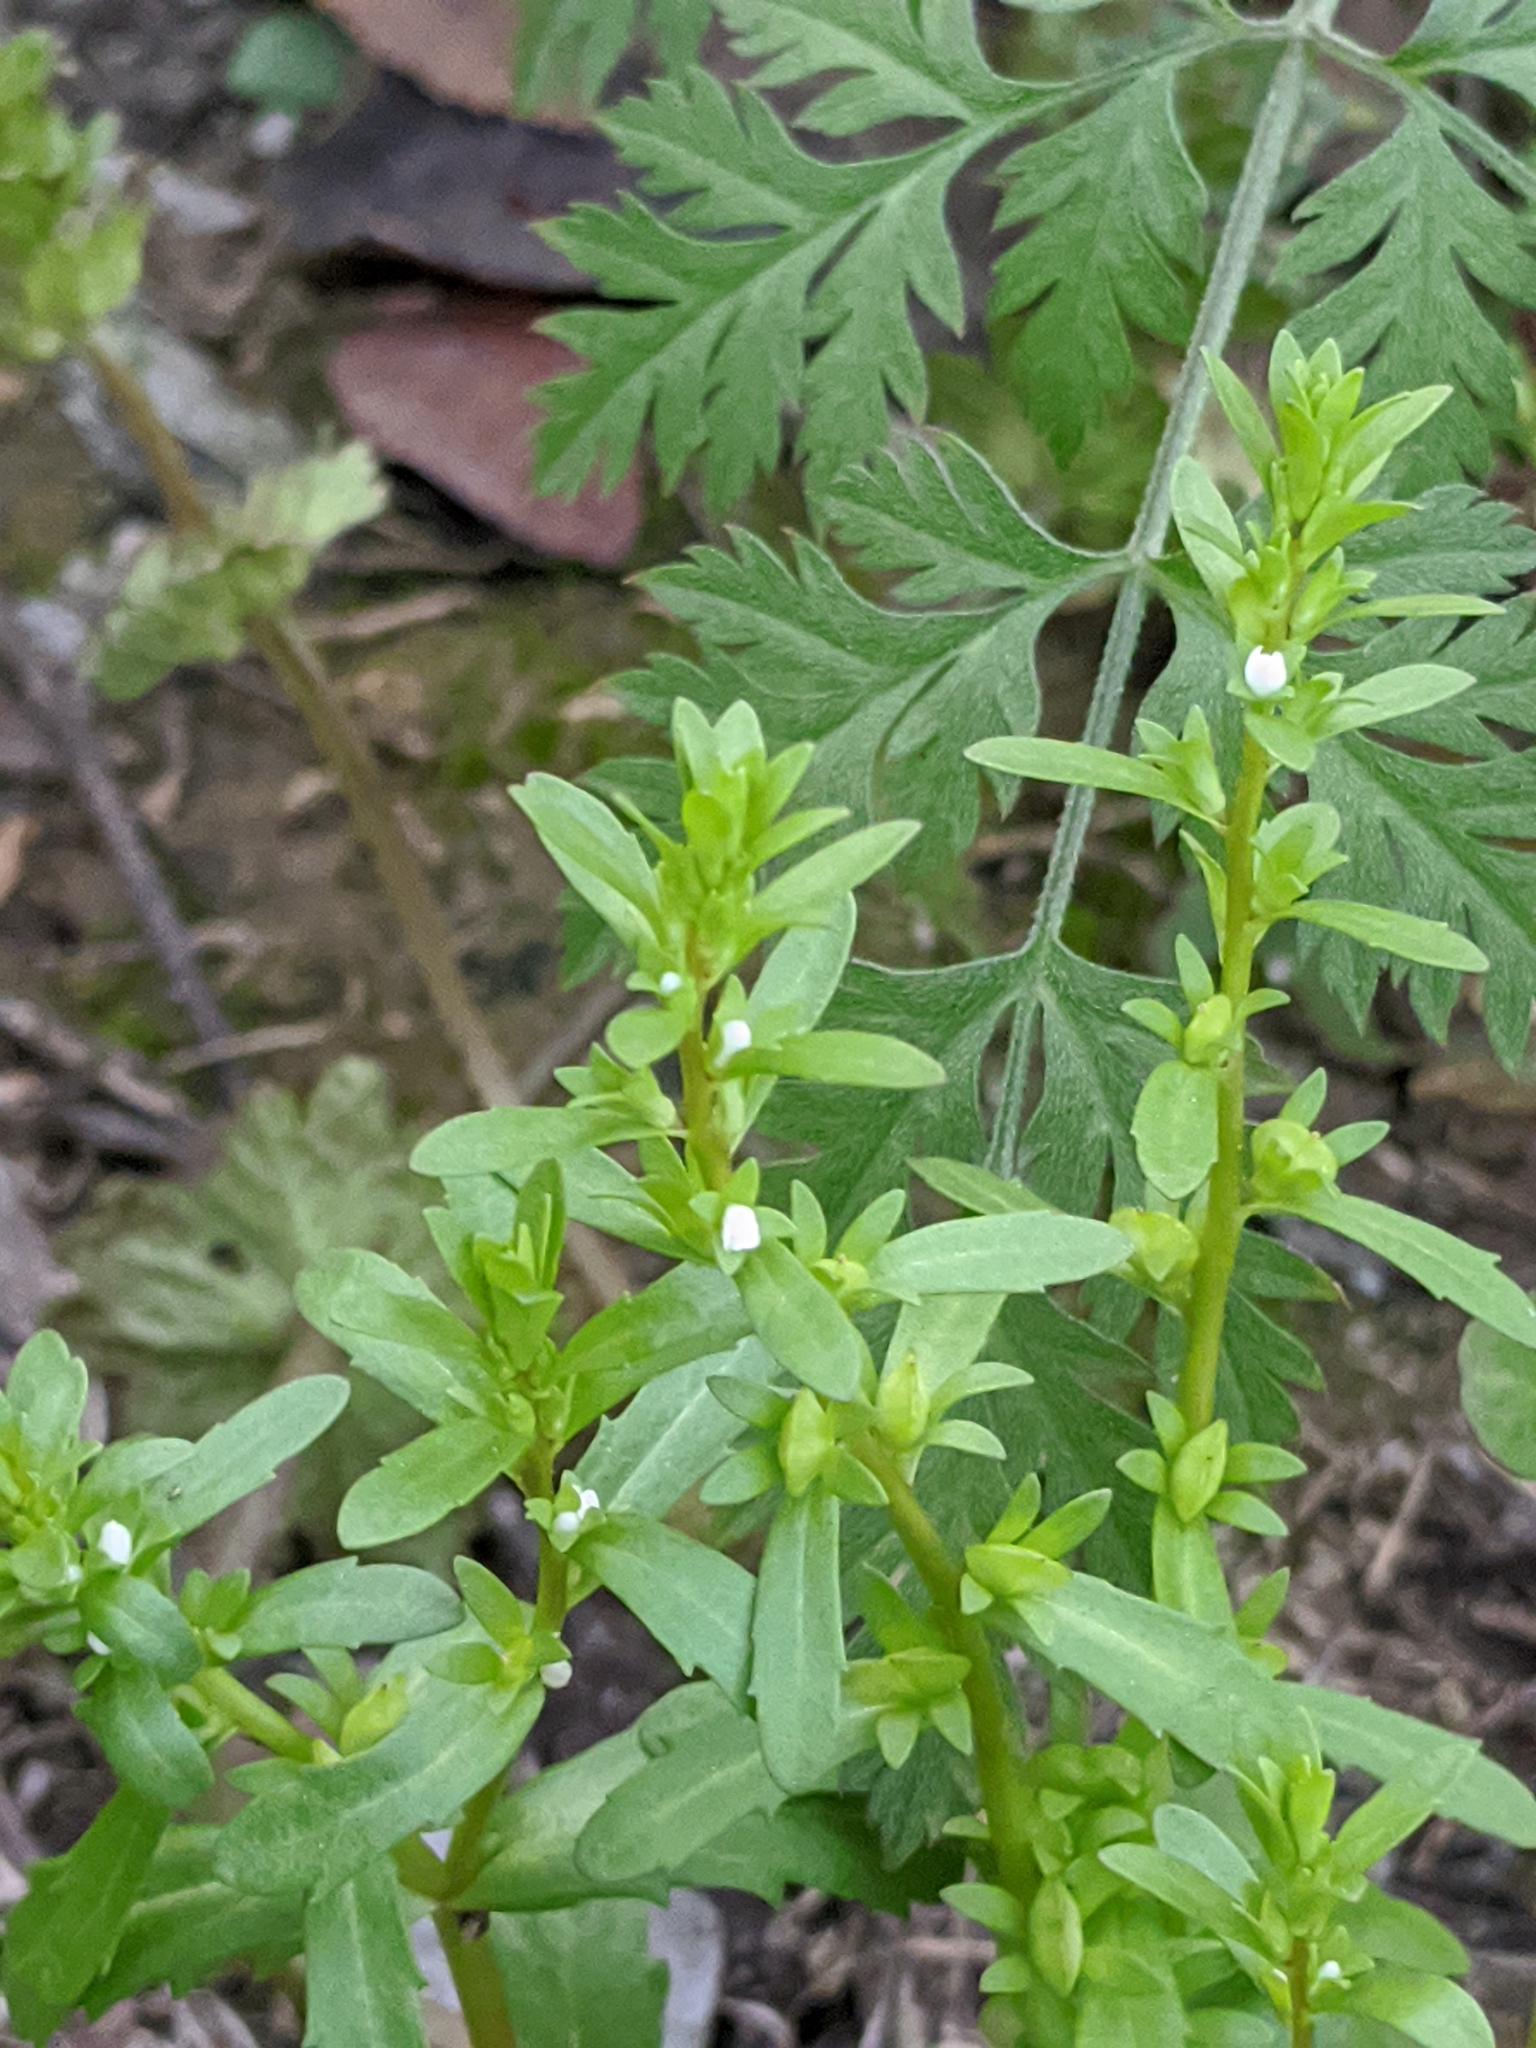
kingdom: Plantae
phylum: Tracheophyta
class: Magnoliopsida
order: Lamiales
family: Plantaginaceae
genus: Veronica
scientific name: Veronica peregrina
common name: Neckweed
